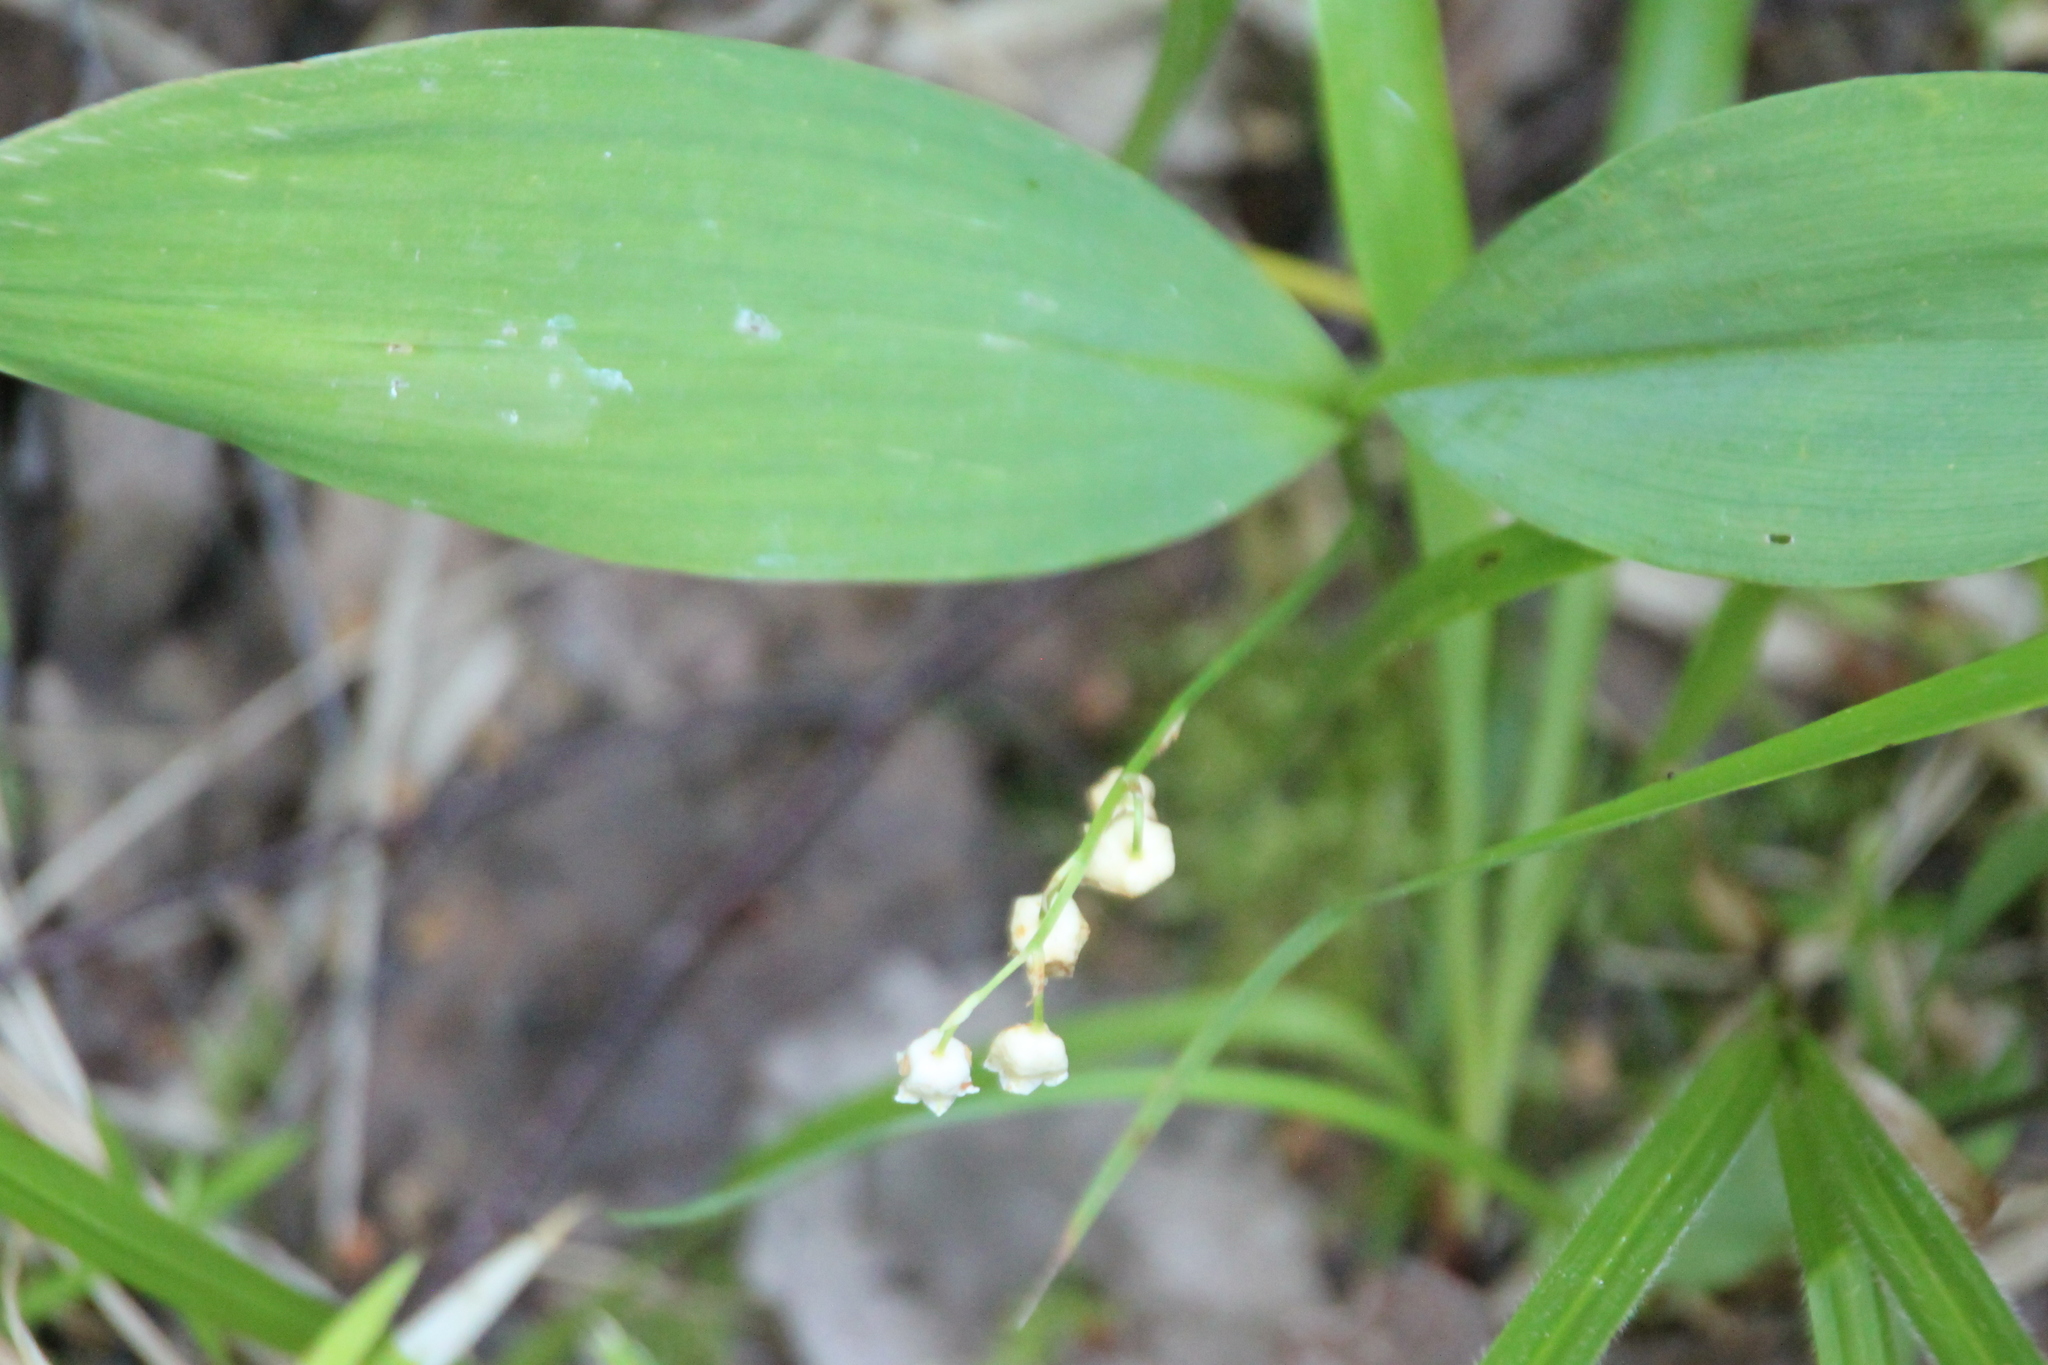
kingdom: Plantae
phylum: Tracheophyta
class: Liliopsida
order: Asparagales
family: Asparagaceae
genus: Convallaria
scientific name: Convallaria majalis
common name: Lily-of-the-valley
